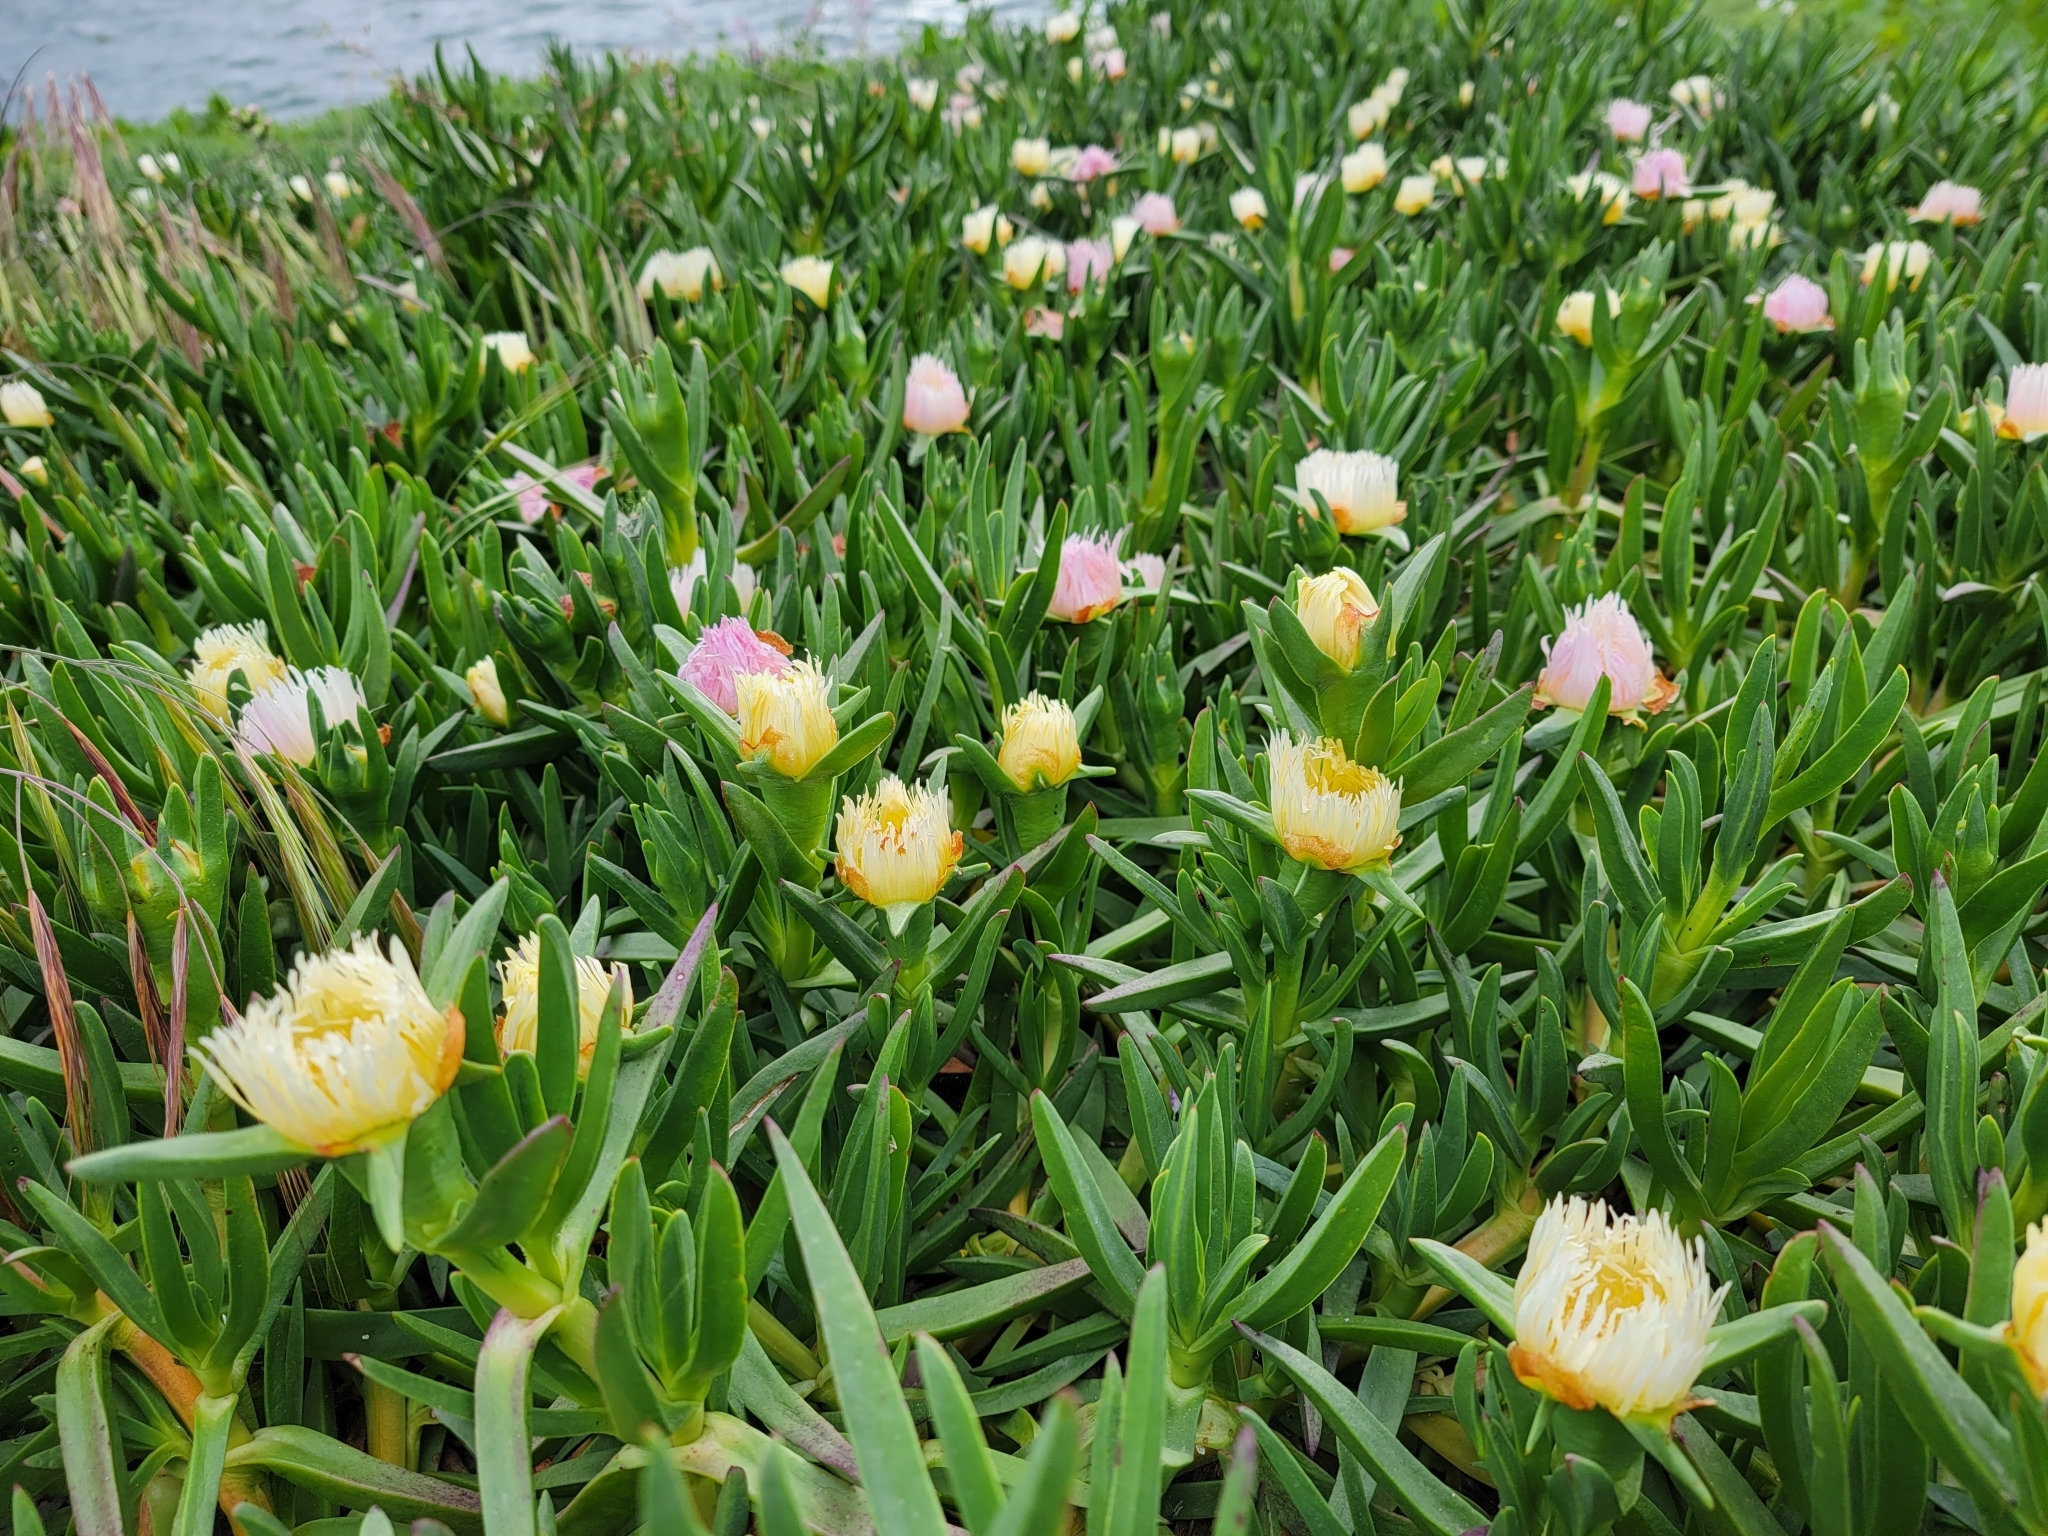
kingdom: Plantae
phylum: Tracheophyta
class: Magnoliopsida
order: Caryophyllales
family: Aizoaceae
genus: Carpobrotus
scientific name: Carpobrotus edulis
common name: Hottentot-fig
